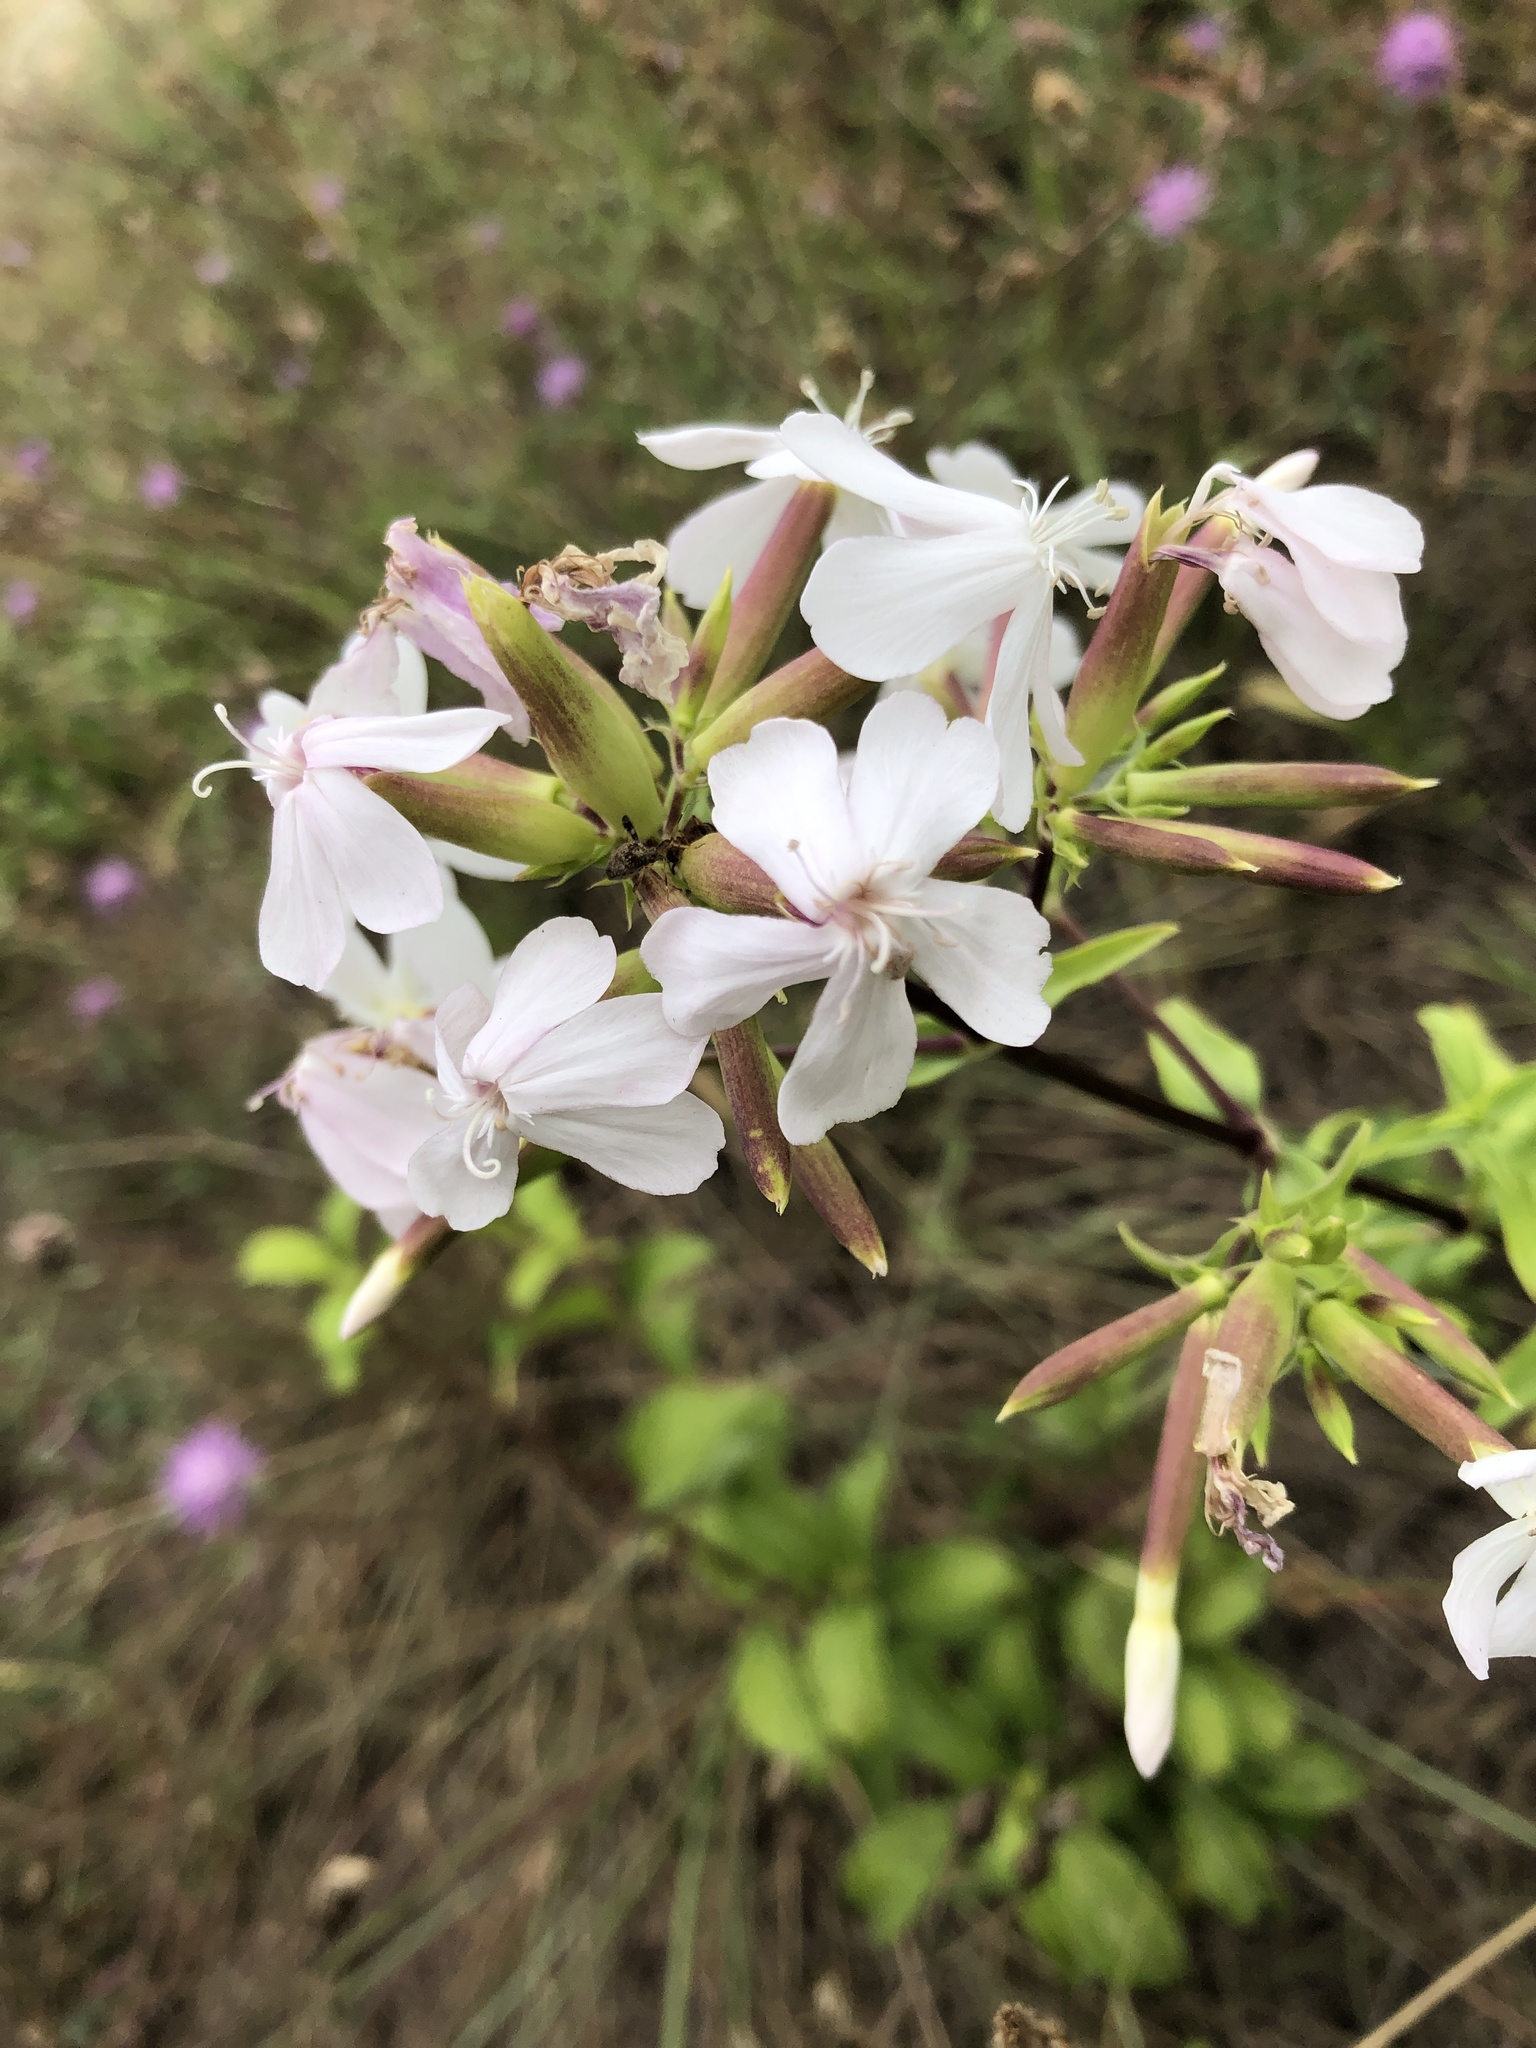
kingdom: Plantae
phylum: Tracheophyta
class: Magnoliopsida
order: Caryophyllales
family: Caryophyllaceae
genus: Saponaria
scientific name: Saponaria officinalis
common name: Soapwort
